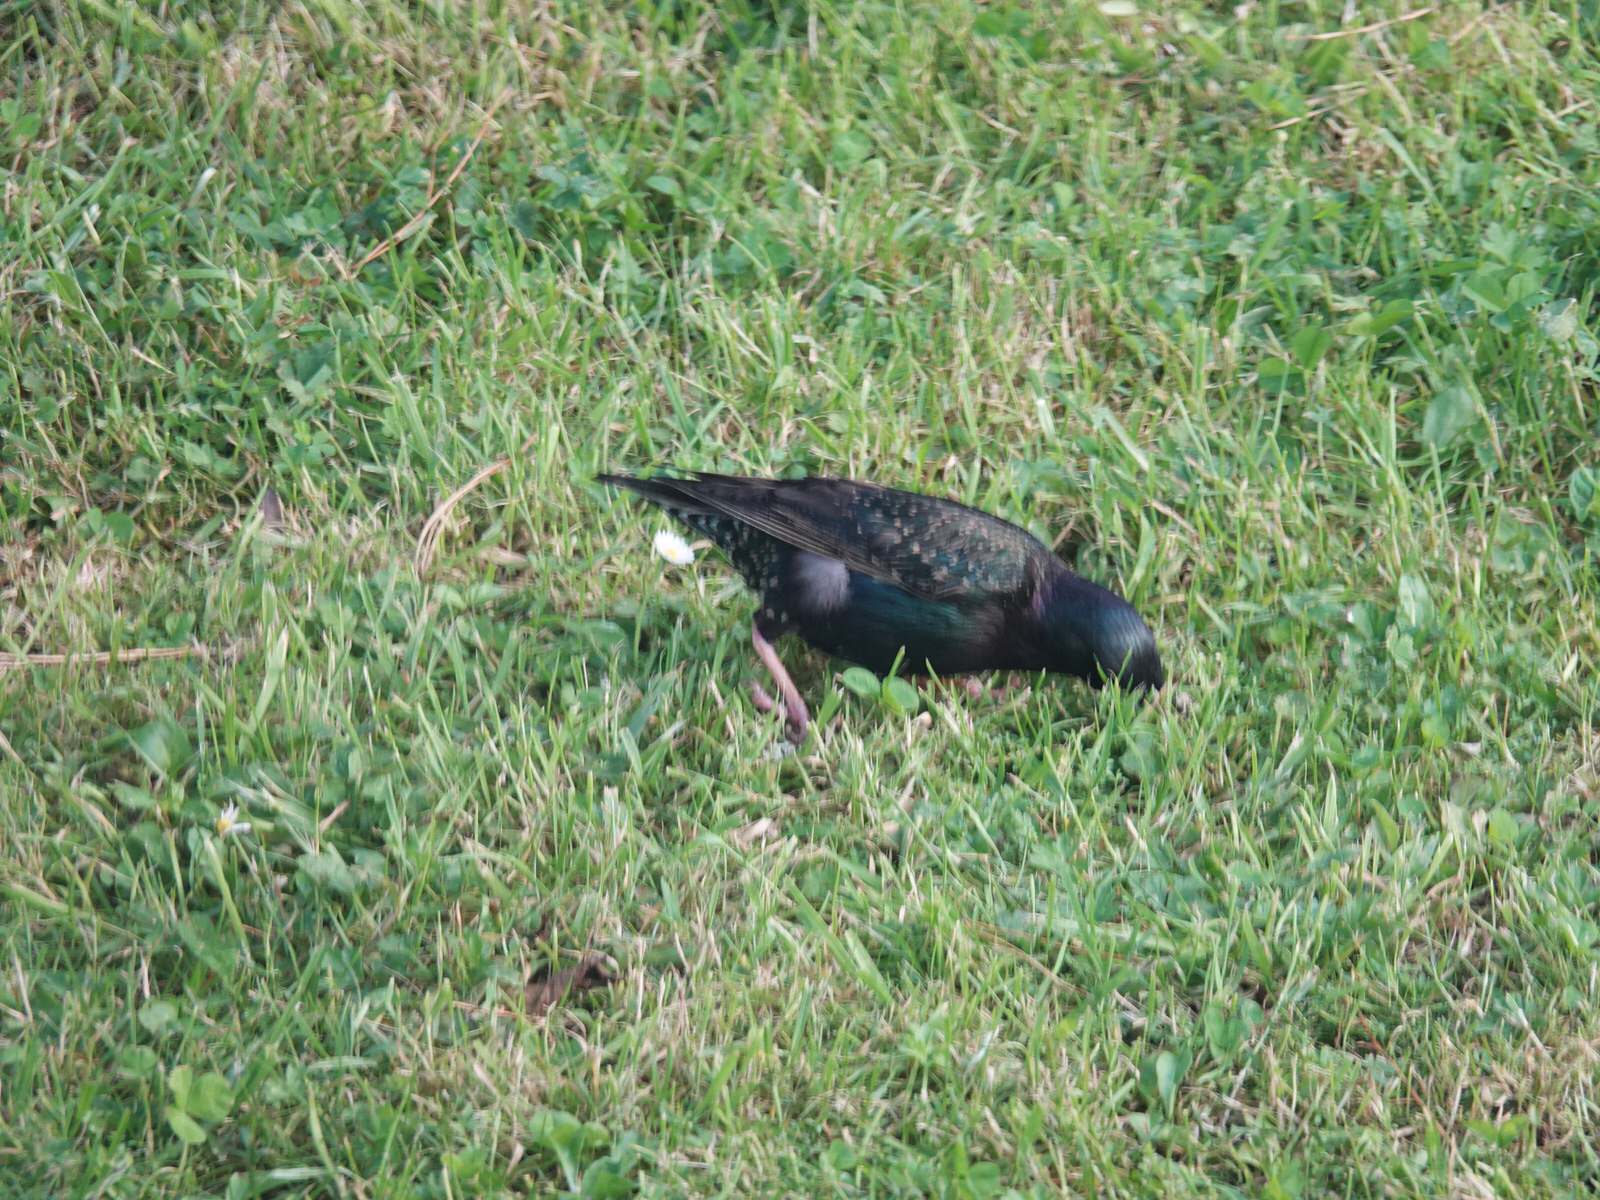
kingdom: Animalia
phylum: Chordata
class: Aves
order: Passeriformes
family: Sturnidae
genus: Sturnus
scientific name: Sturnus vulgaris
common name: Common starling
